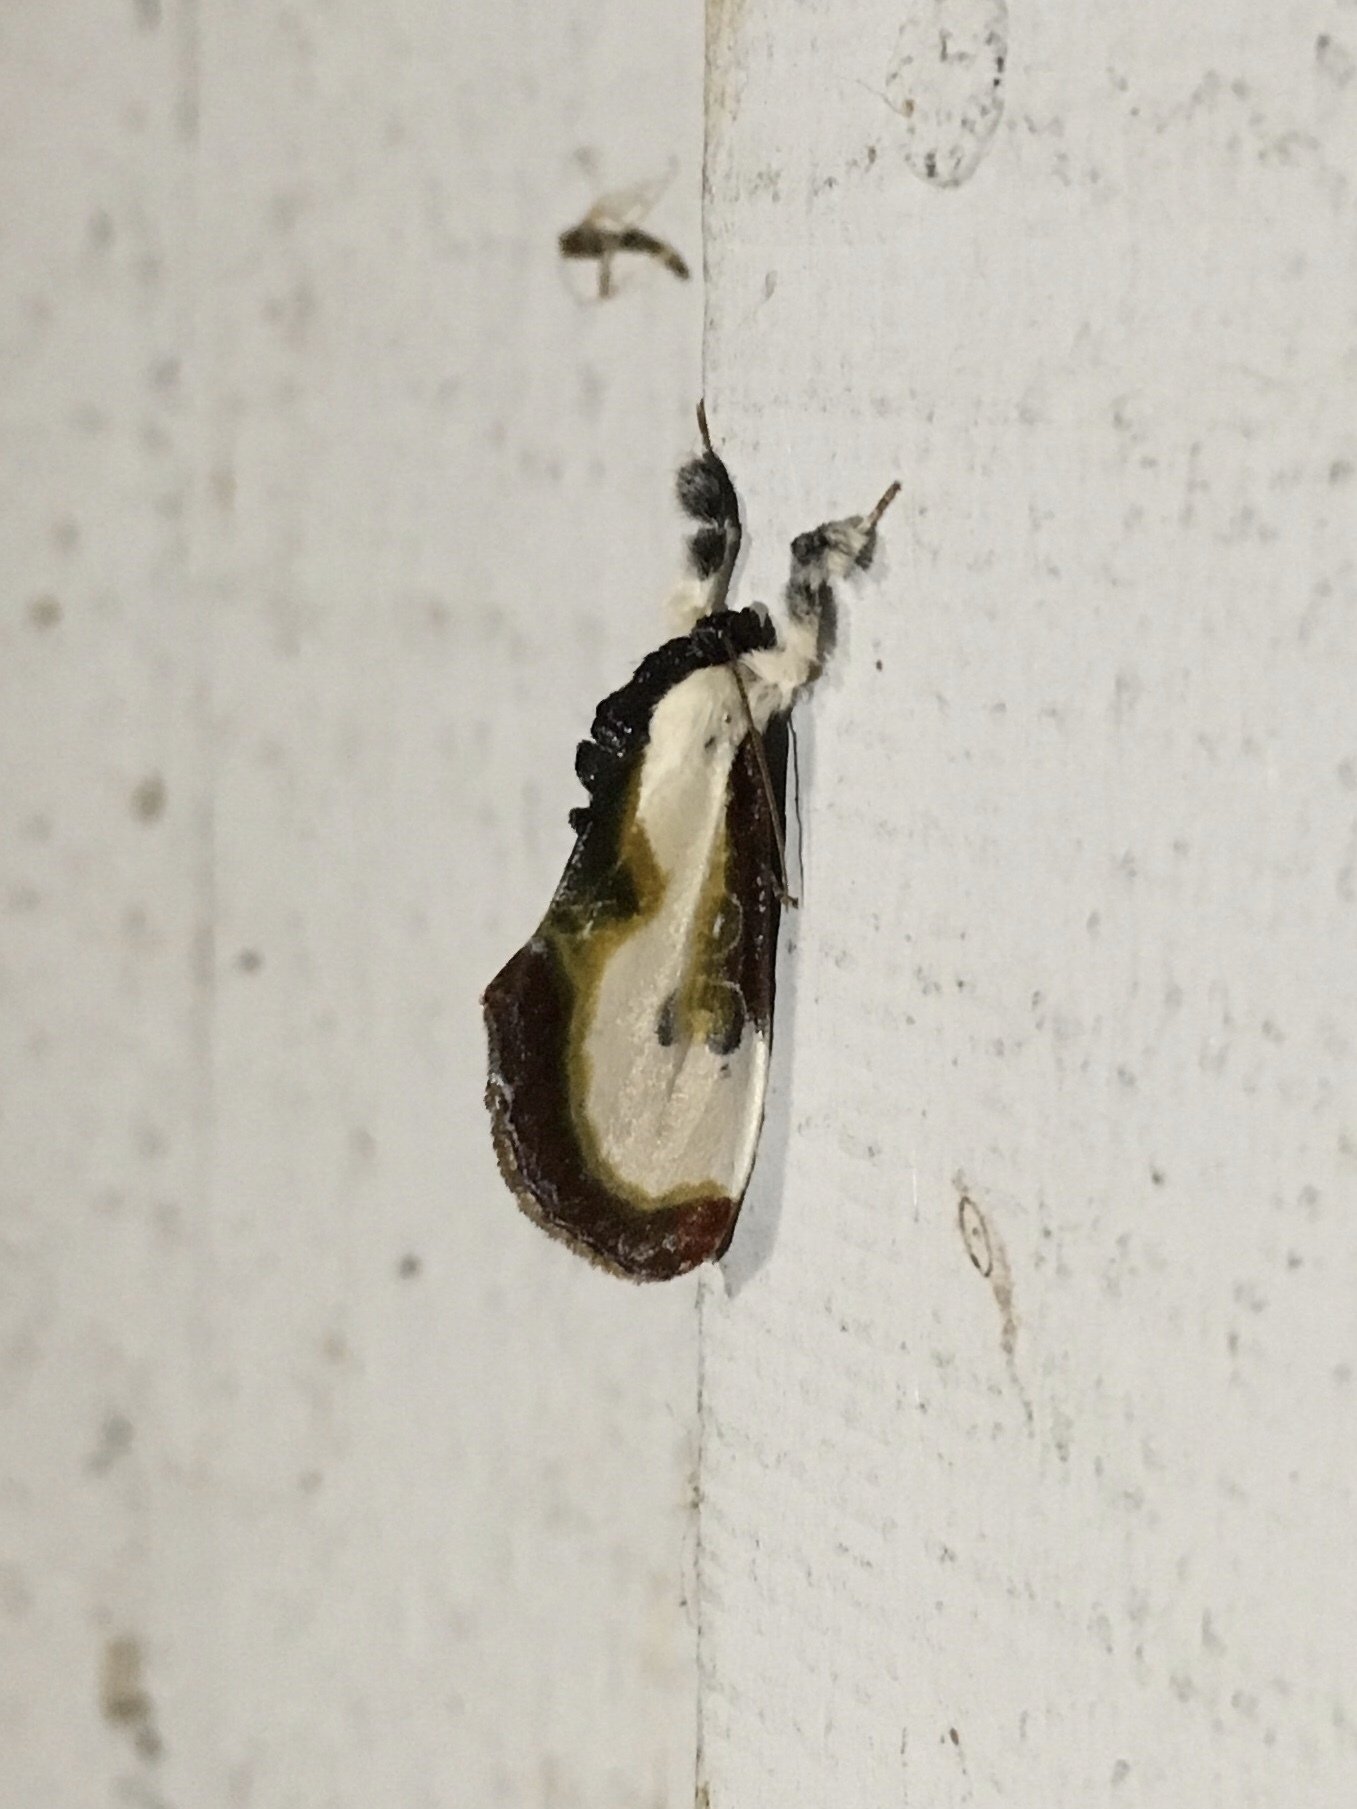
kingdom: Animalia
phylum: Arthropoda
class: Insecta
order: Lepidoptera
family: Noctuidae
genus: Eudryas
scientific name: Eudryas grata
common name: Beautiful wood-nymph
